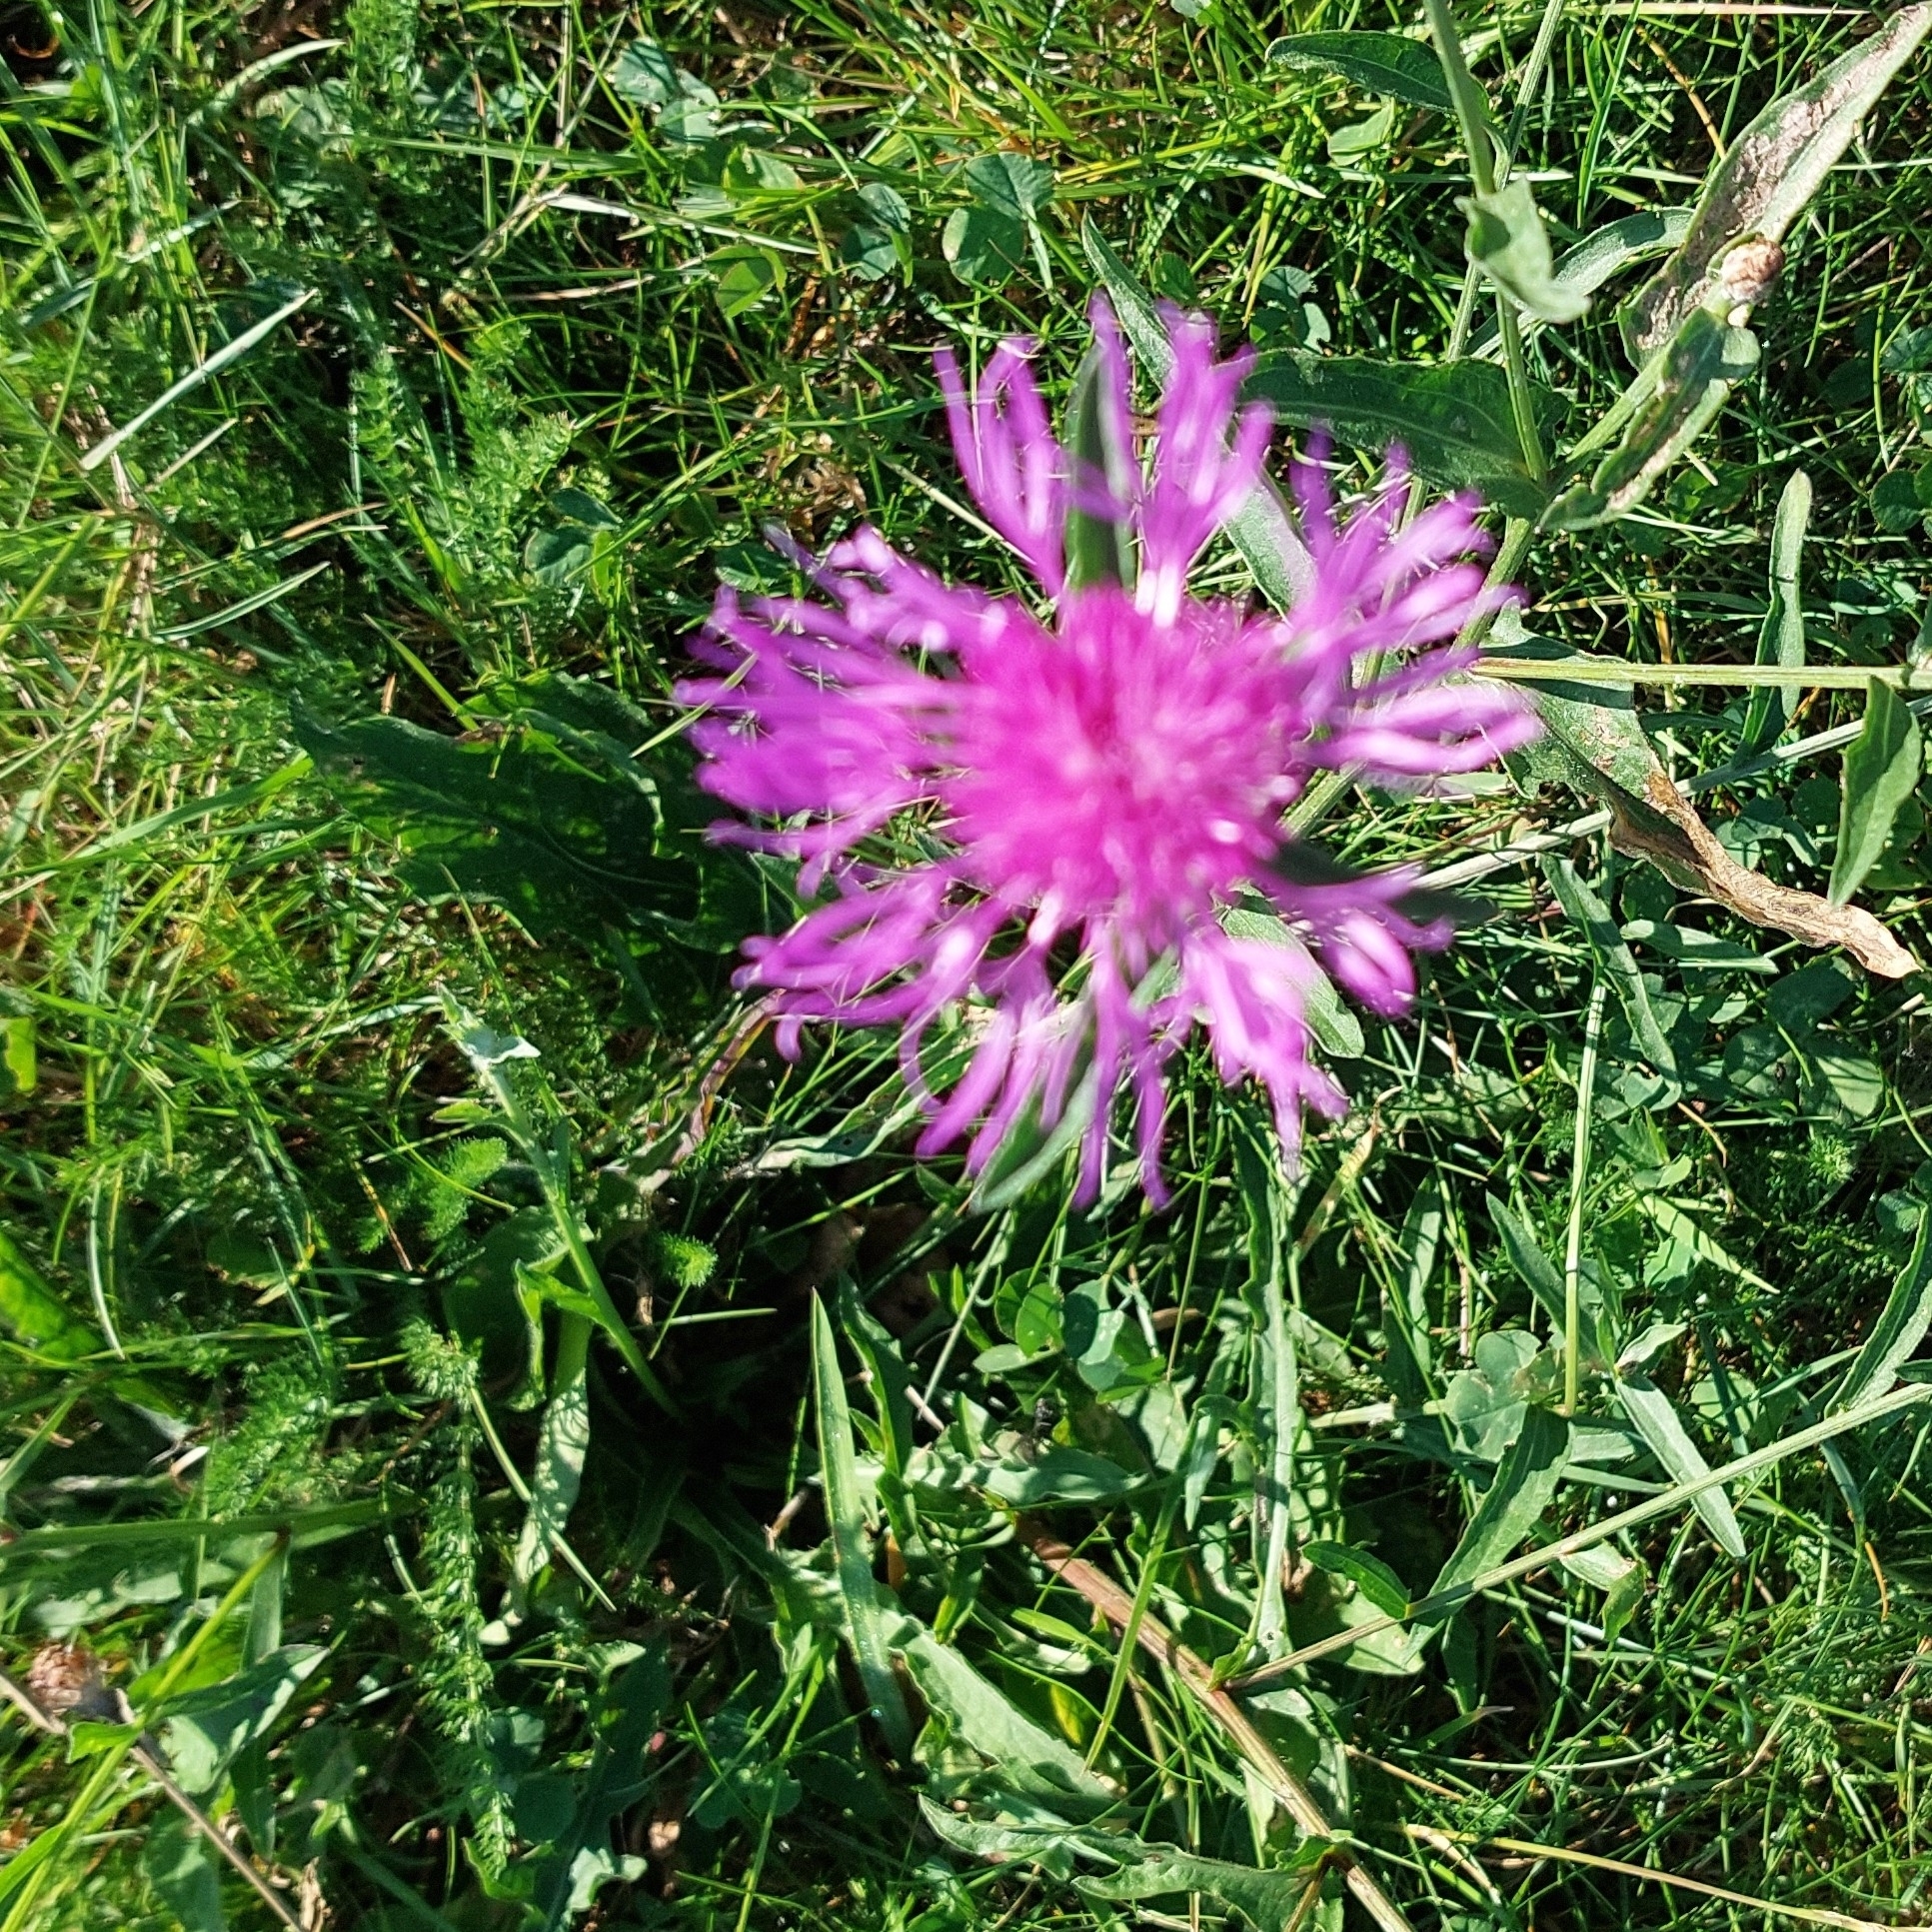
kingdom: Plantae
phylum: Tracheophyta
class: Magnoliopsida
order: Asterales
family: Asteraceae
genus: Centaurea
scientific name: Centaurea jacea
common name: Brown knapweed
